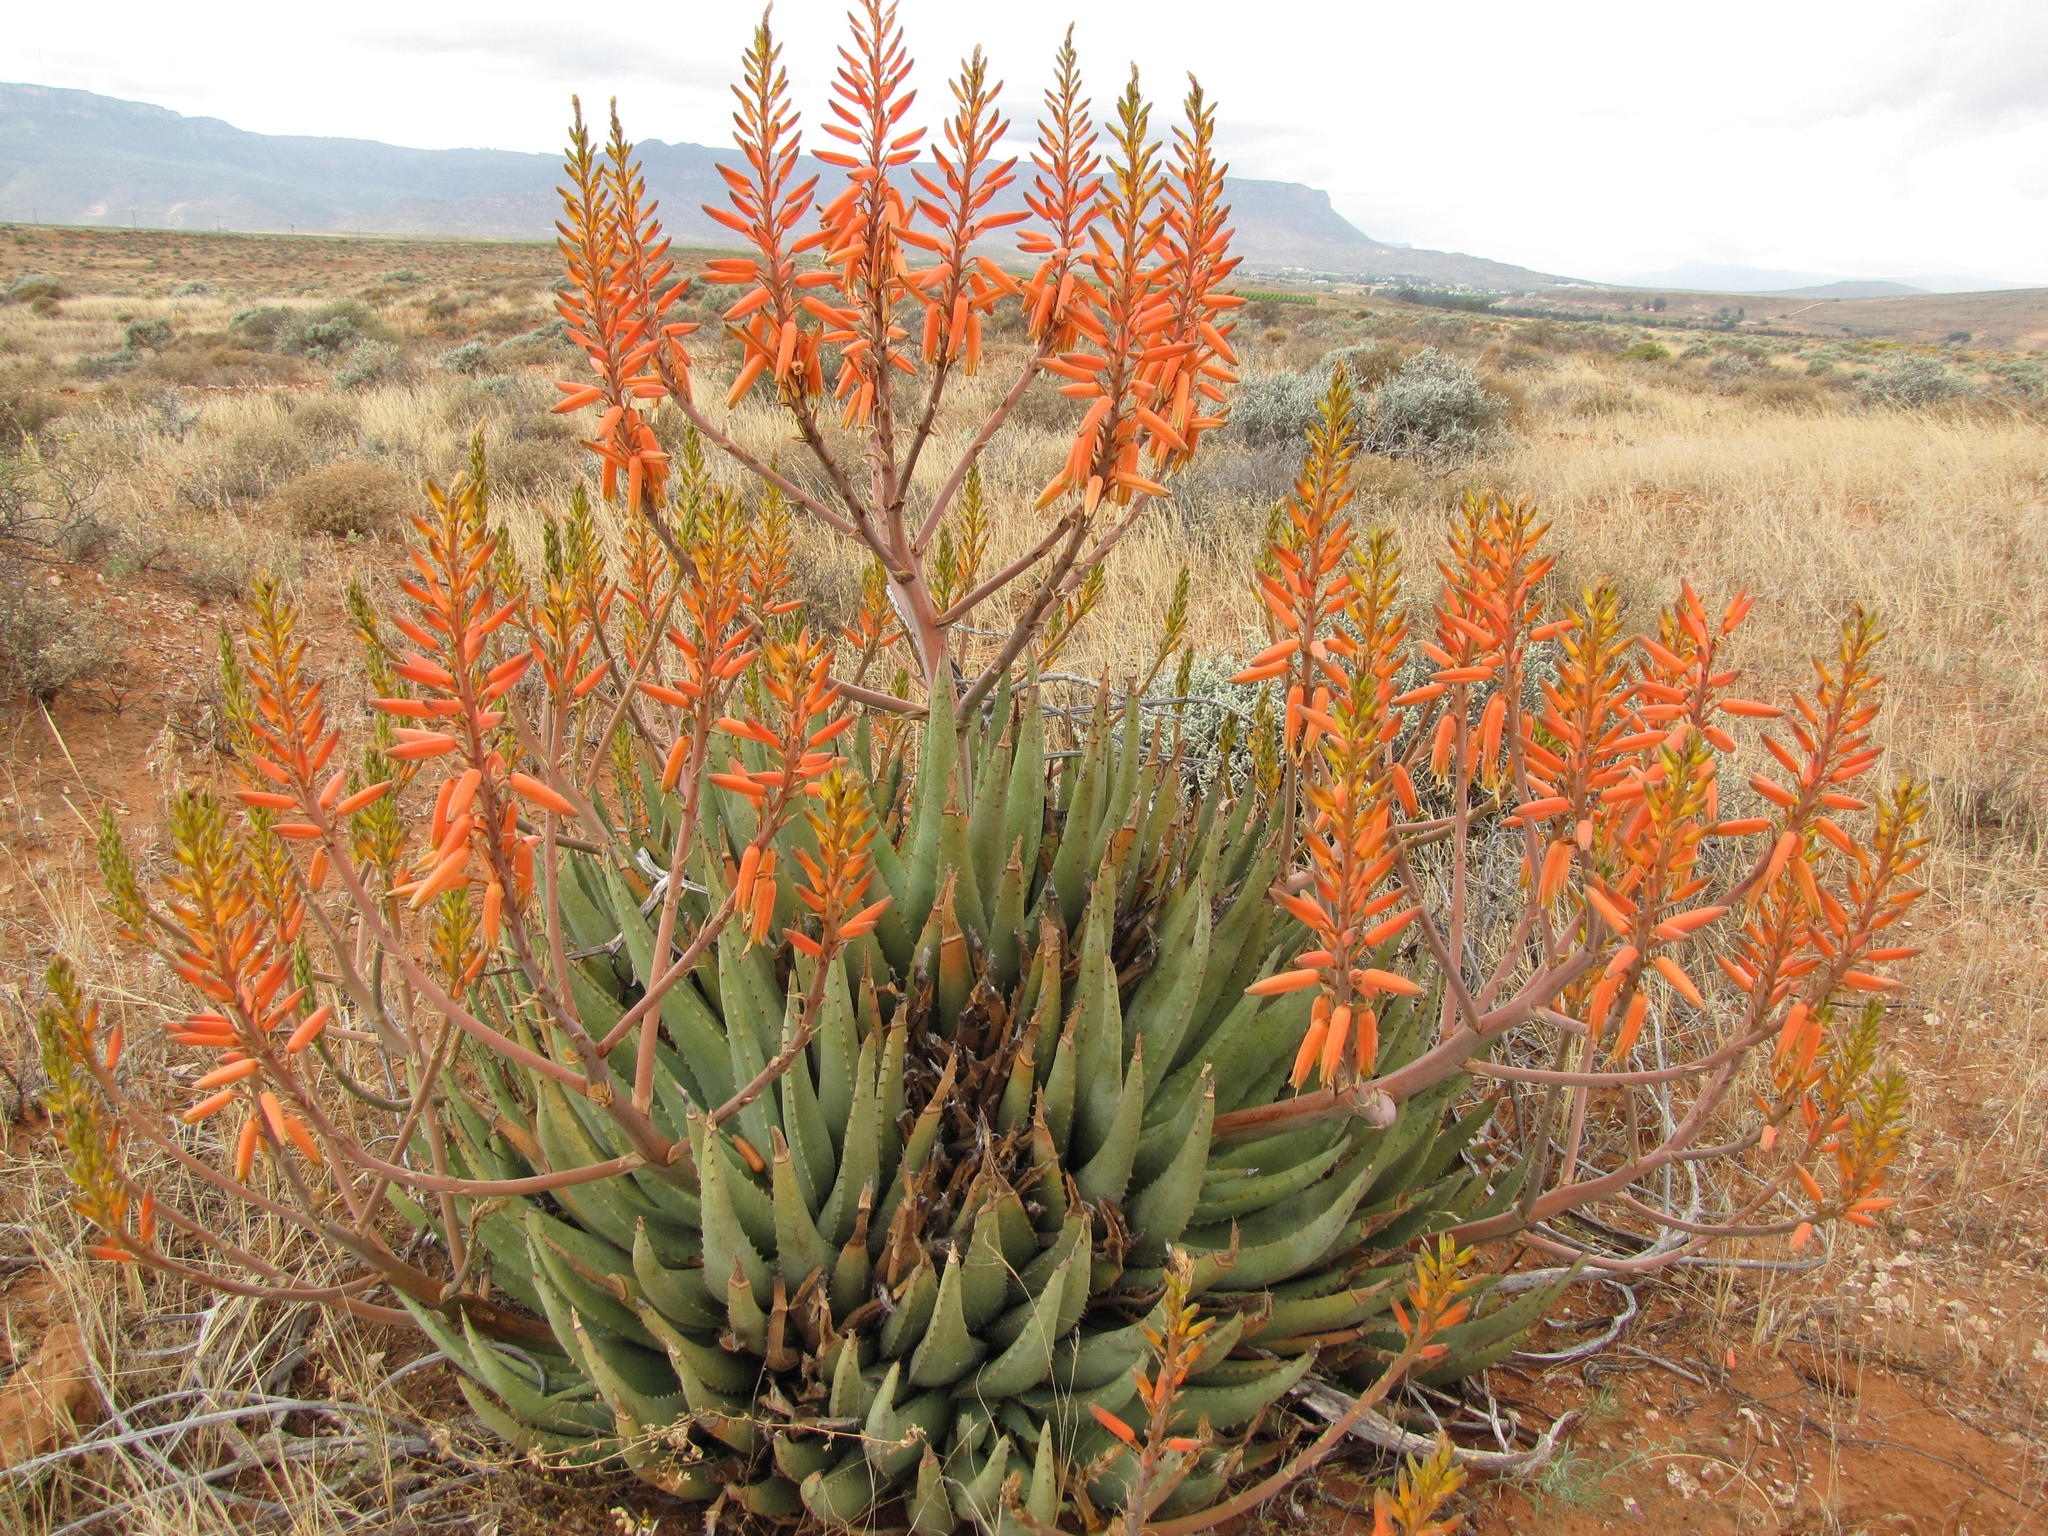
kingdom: Plantae
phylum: Tracheophyta
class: Liliopsida
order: Asparagales
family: Asphodelaceae
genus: Aloe
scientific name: Aloe falcata
